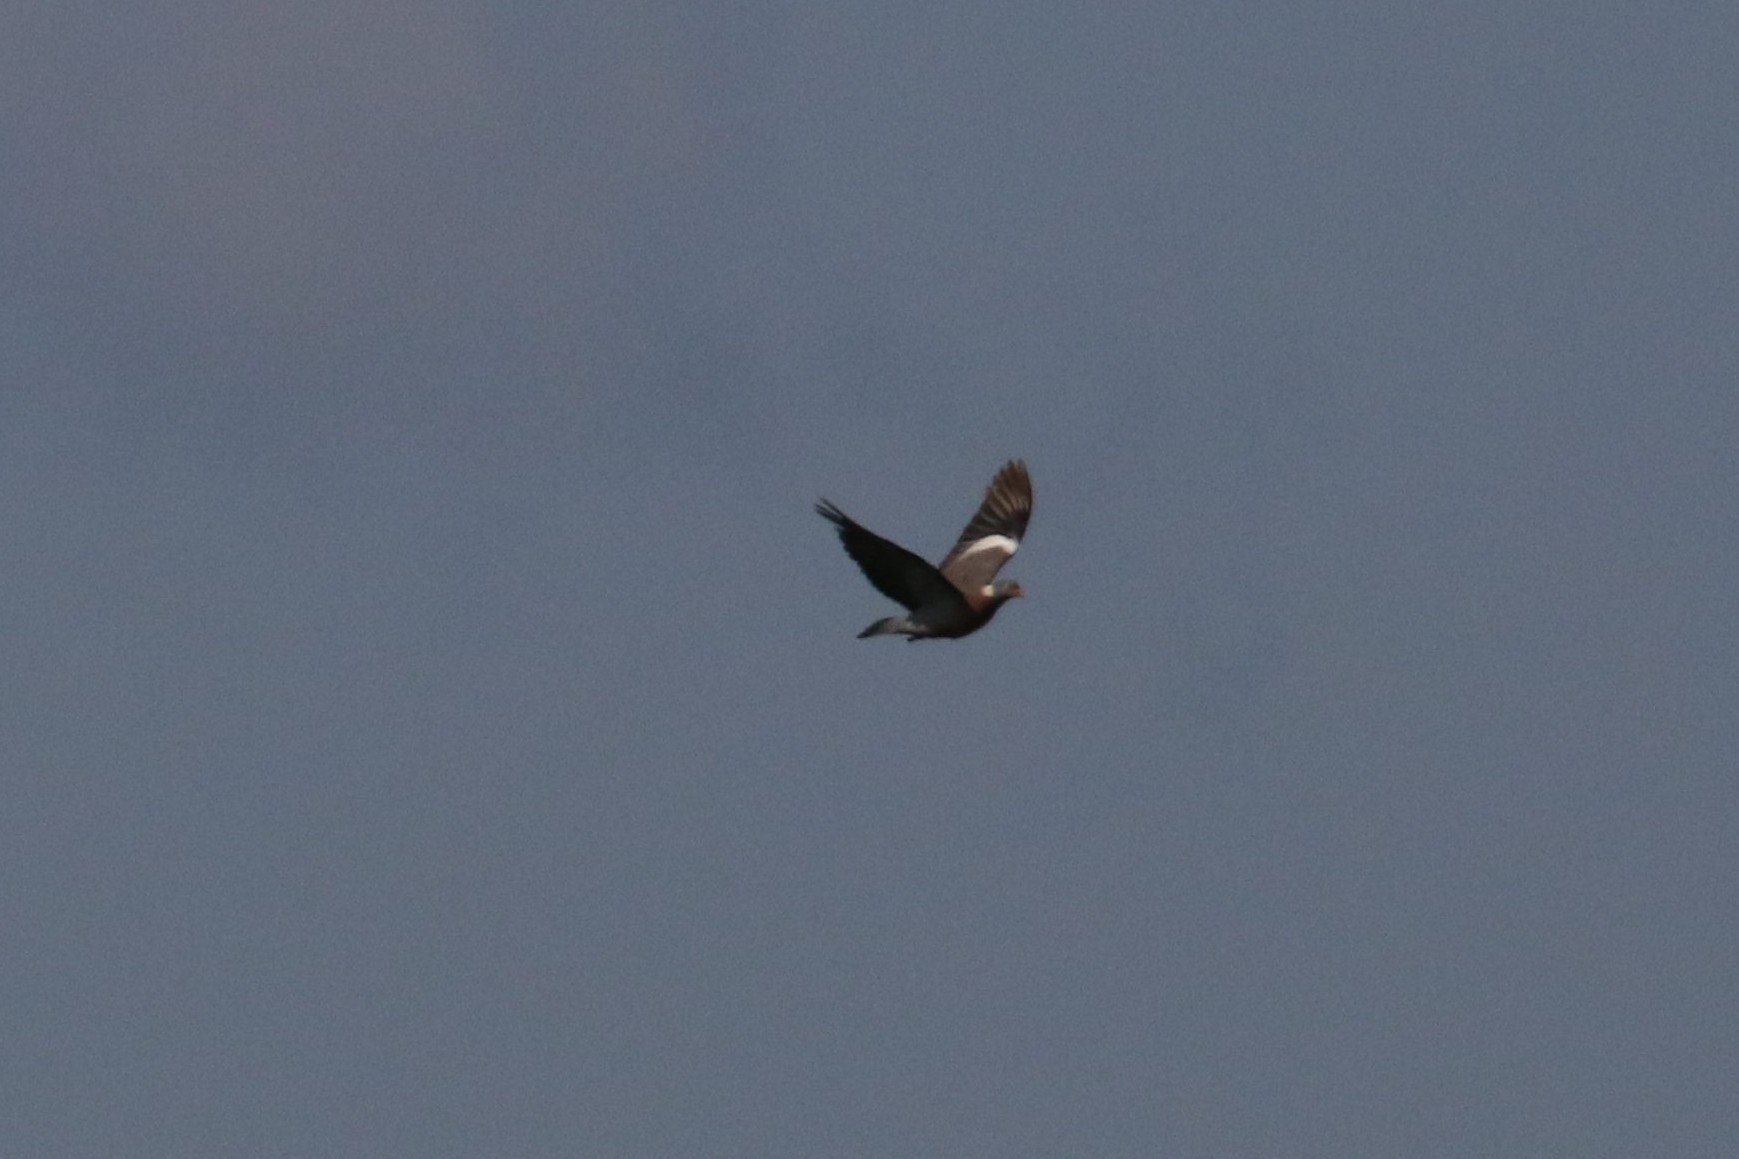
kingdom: Animalia
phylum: Chordata
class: Aves
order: Columbiformes
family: Columbidae
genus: Columba
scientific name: Columba palumbus
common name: Common wood pigeon
